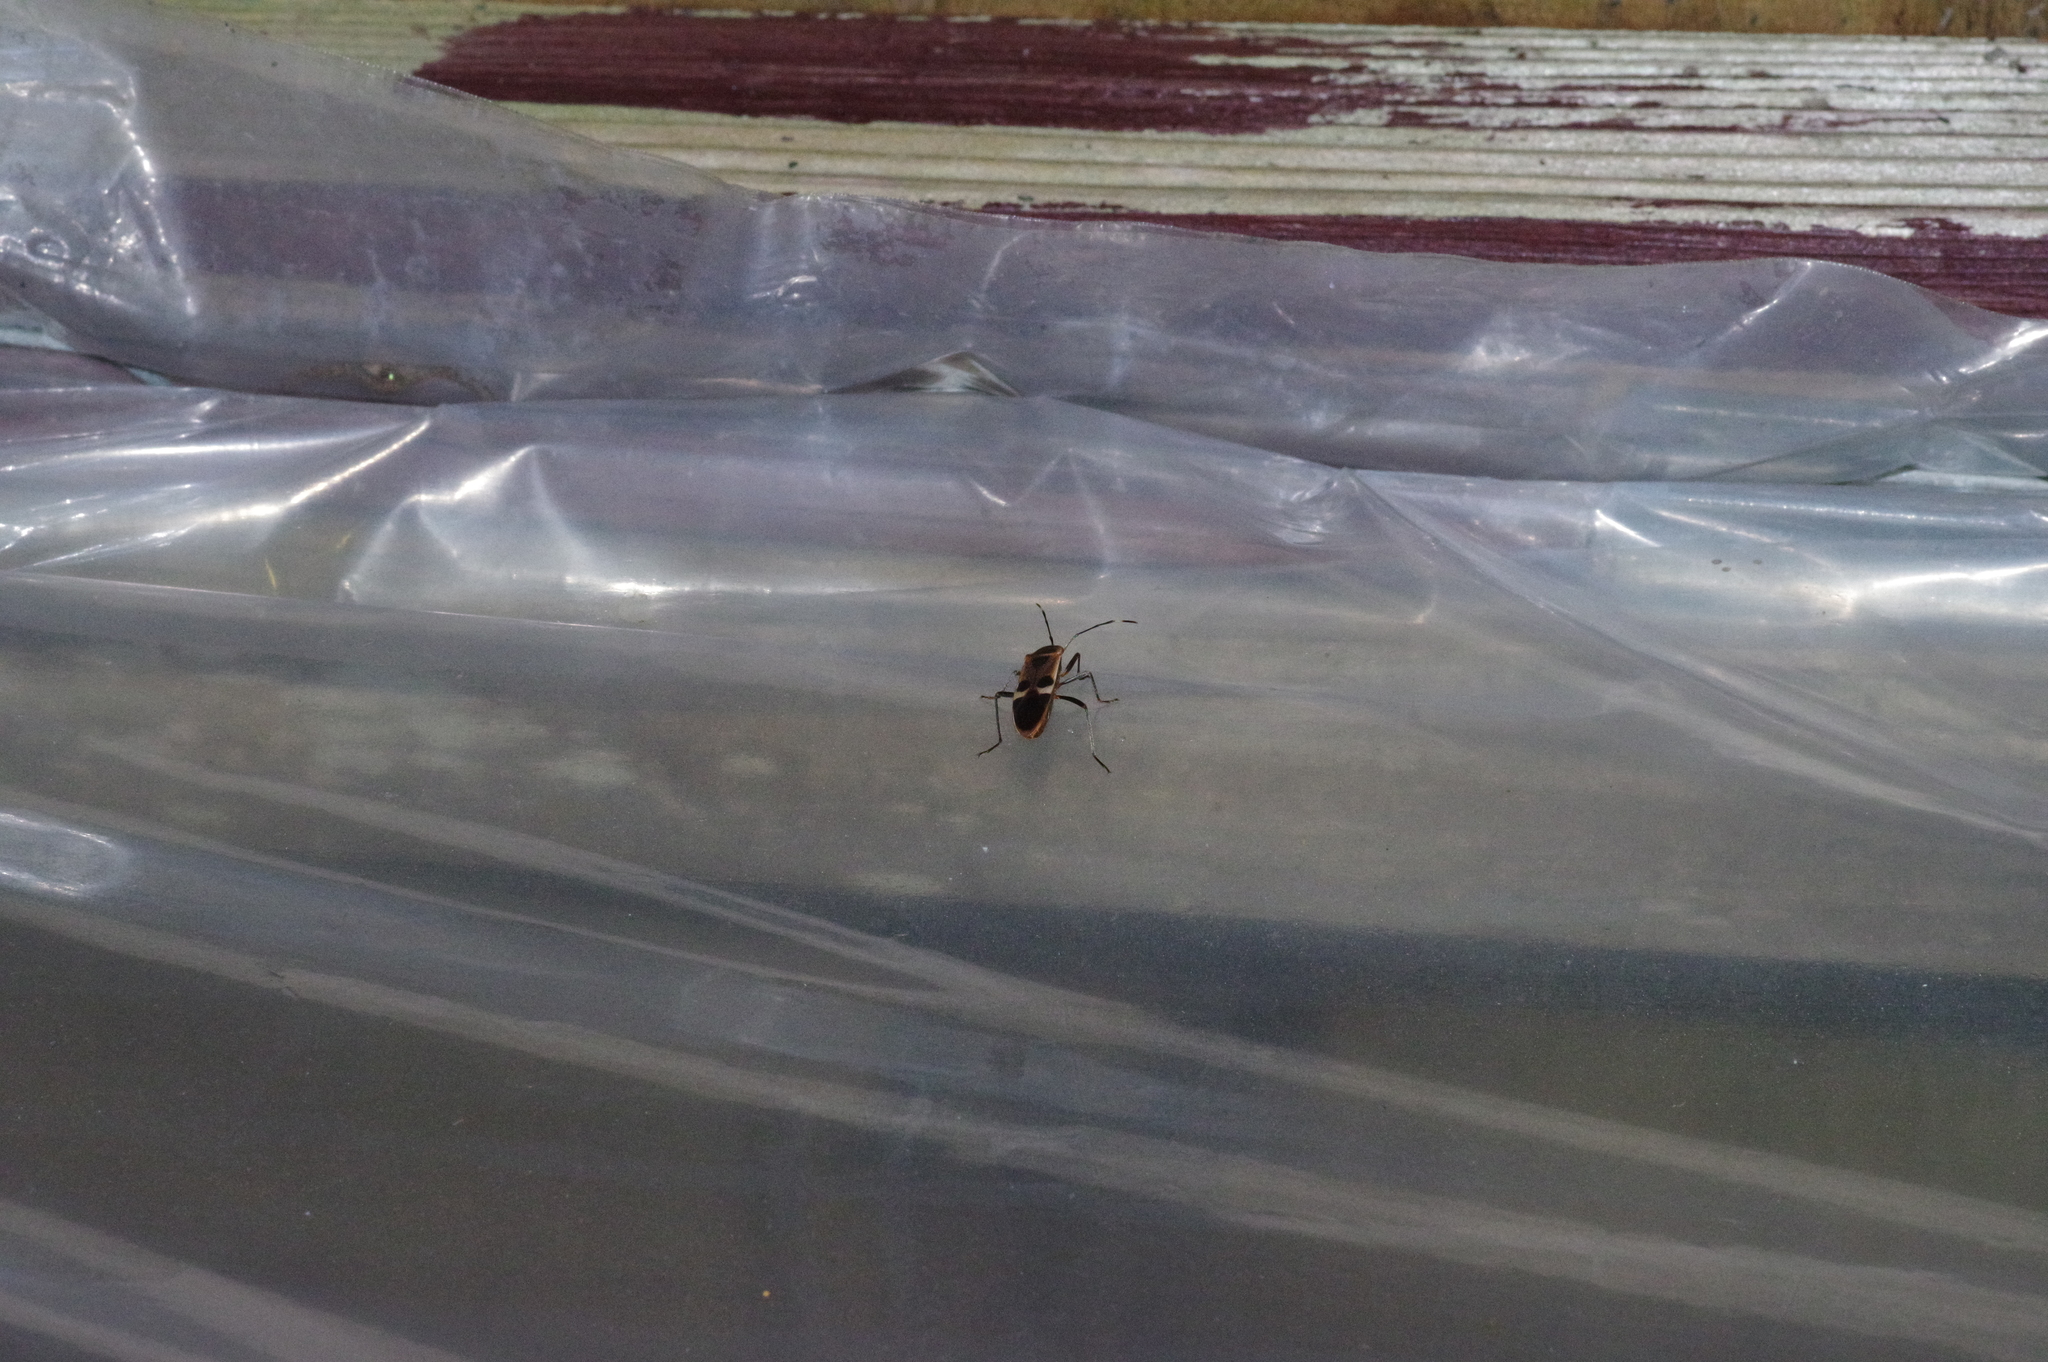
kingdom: Animalia
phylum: Arthropoda
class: Insecta
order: Hemiptera
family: Largidae
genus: Physopelta
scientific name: Physopelta gutta
